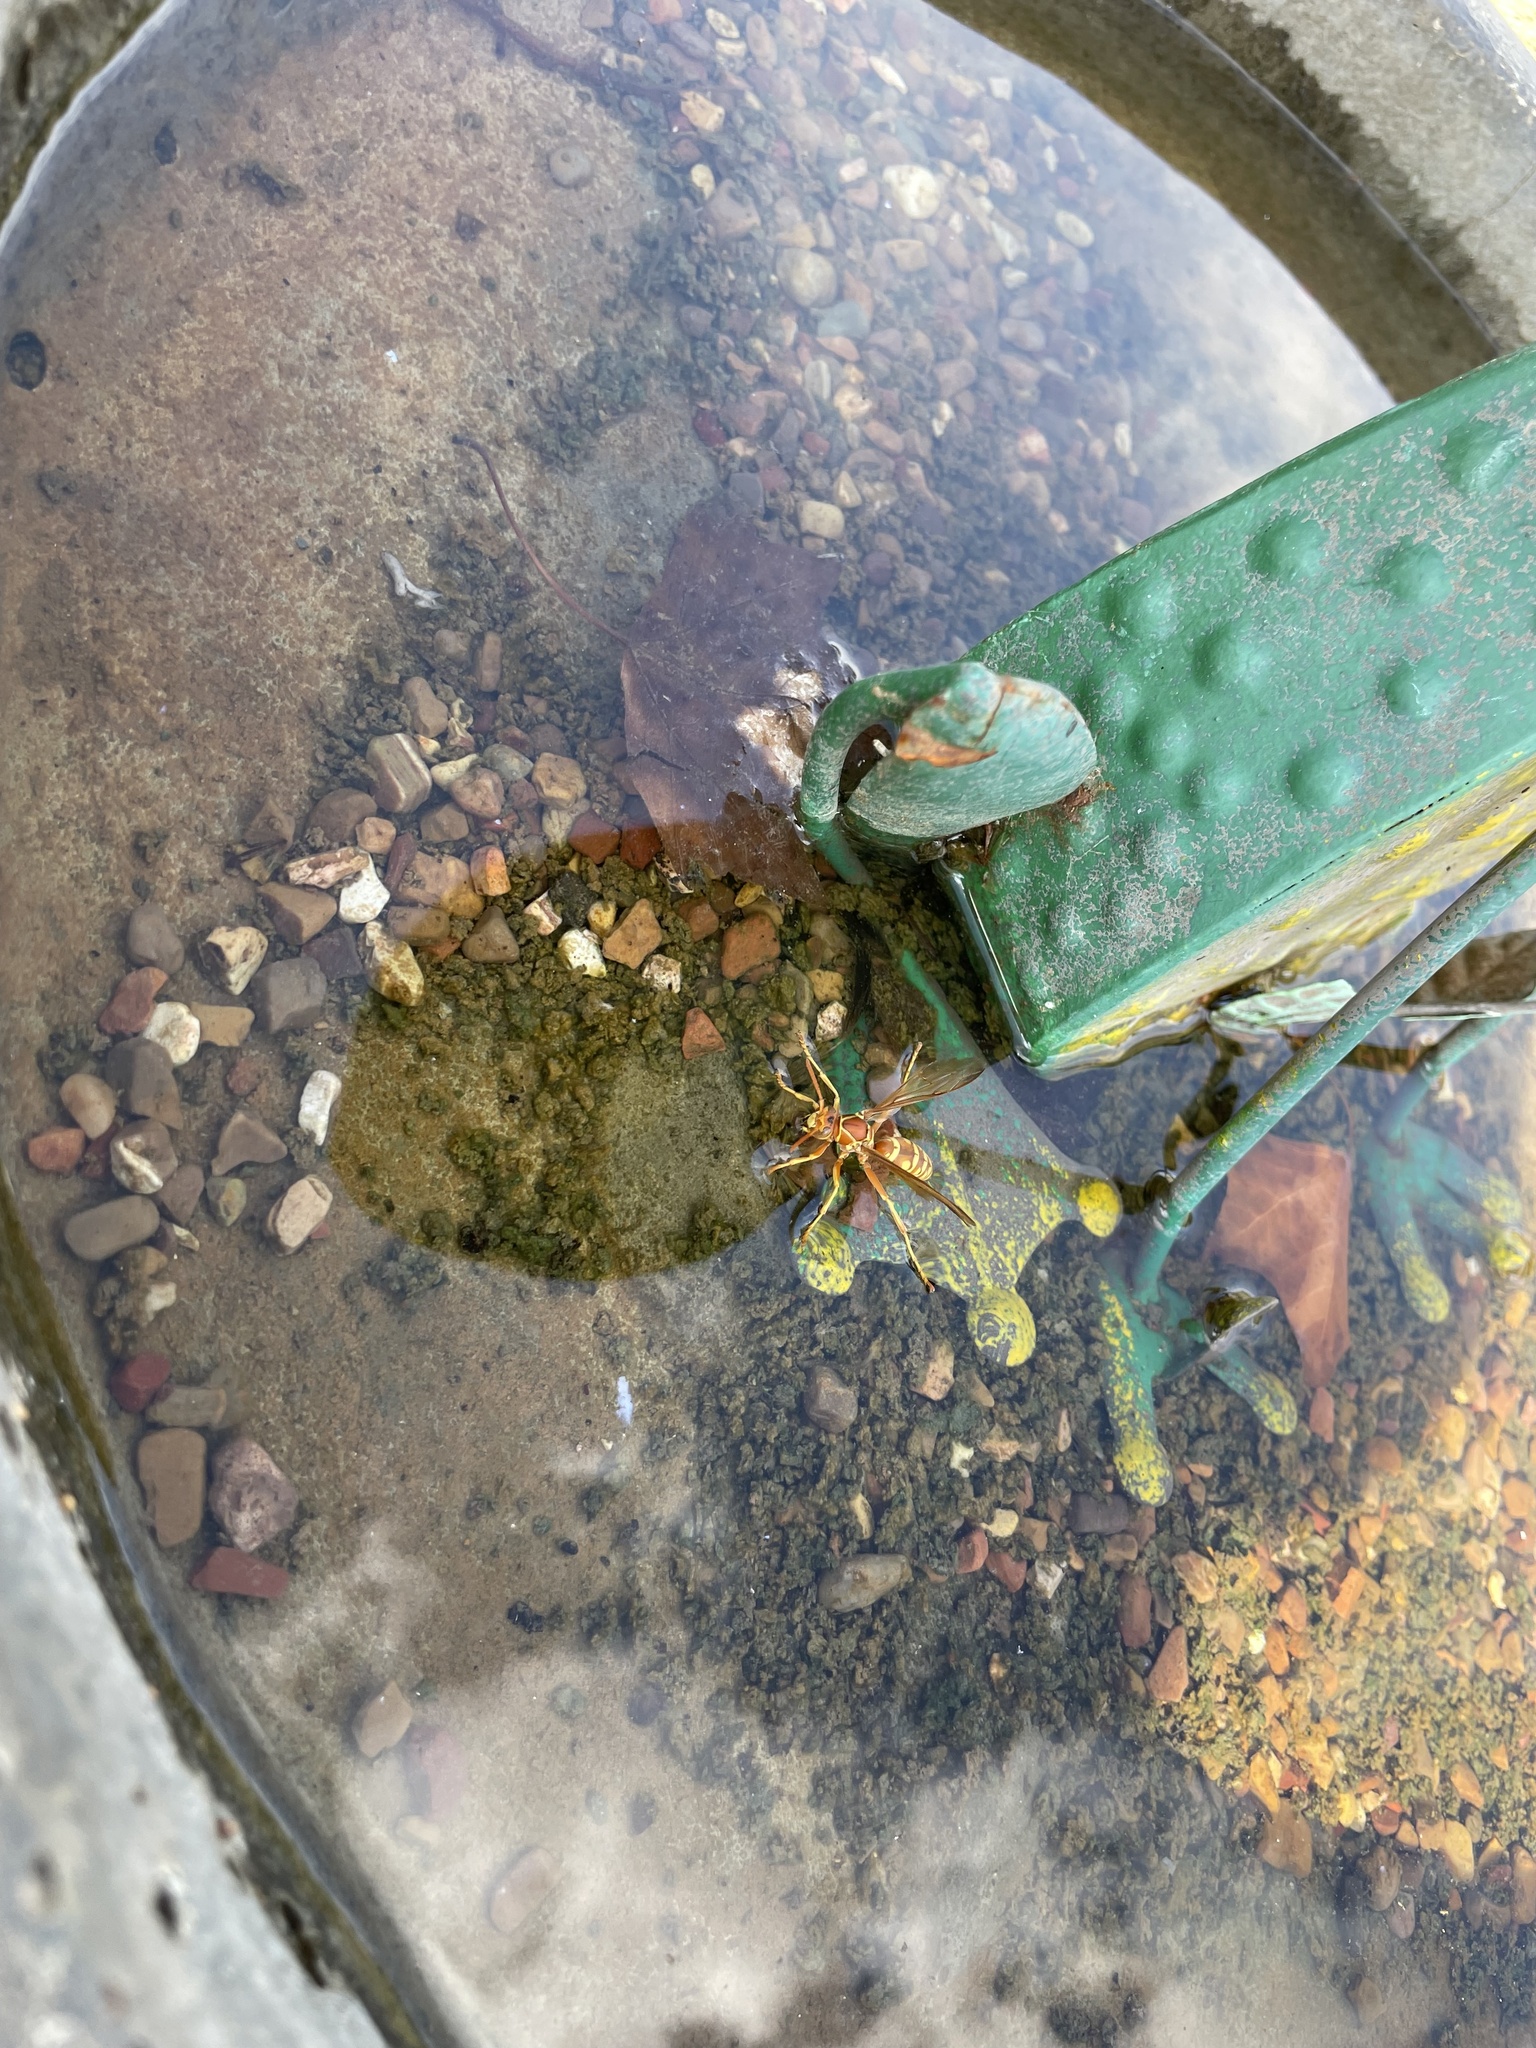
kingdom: Animalia
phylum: Arthropoda
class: Insecta
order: Hymenoptera
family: Eumenidae
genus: Polistes
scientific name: Polistes apachus
